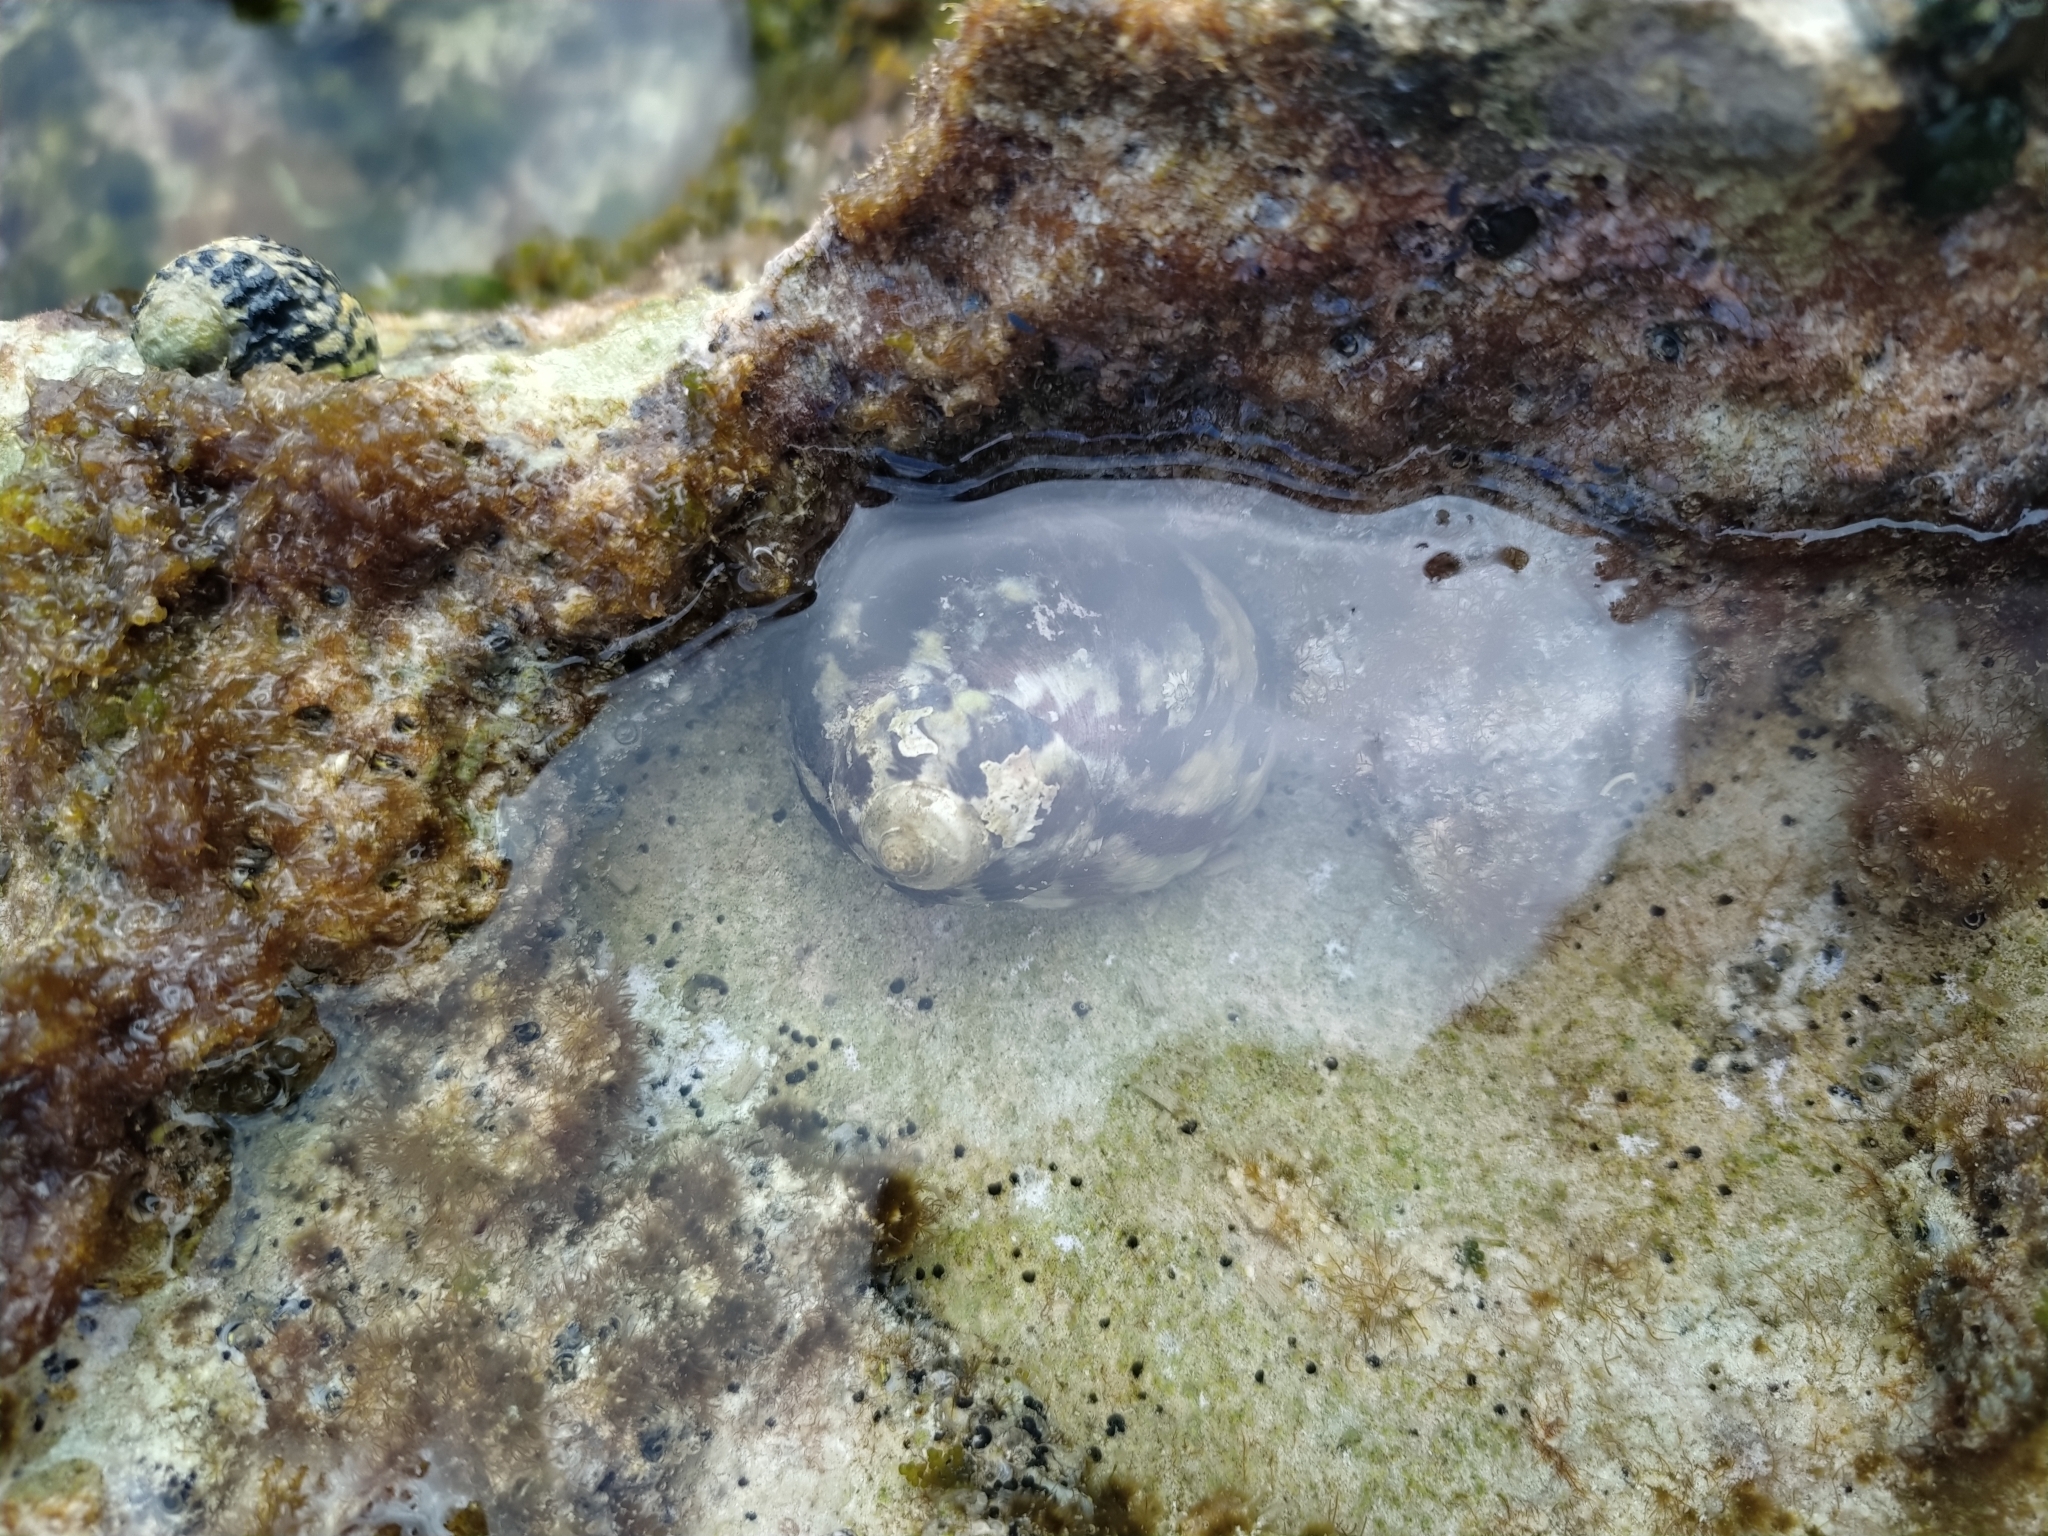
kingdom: Animalia
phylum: Mollusca
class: Gastropoda
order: Trochida
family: Tegulidae
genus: Cittarium
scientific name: Cittarium pica
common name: West indian topshell
